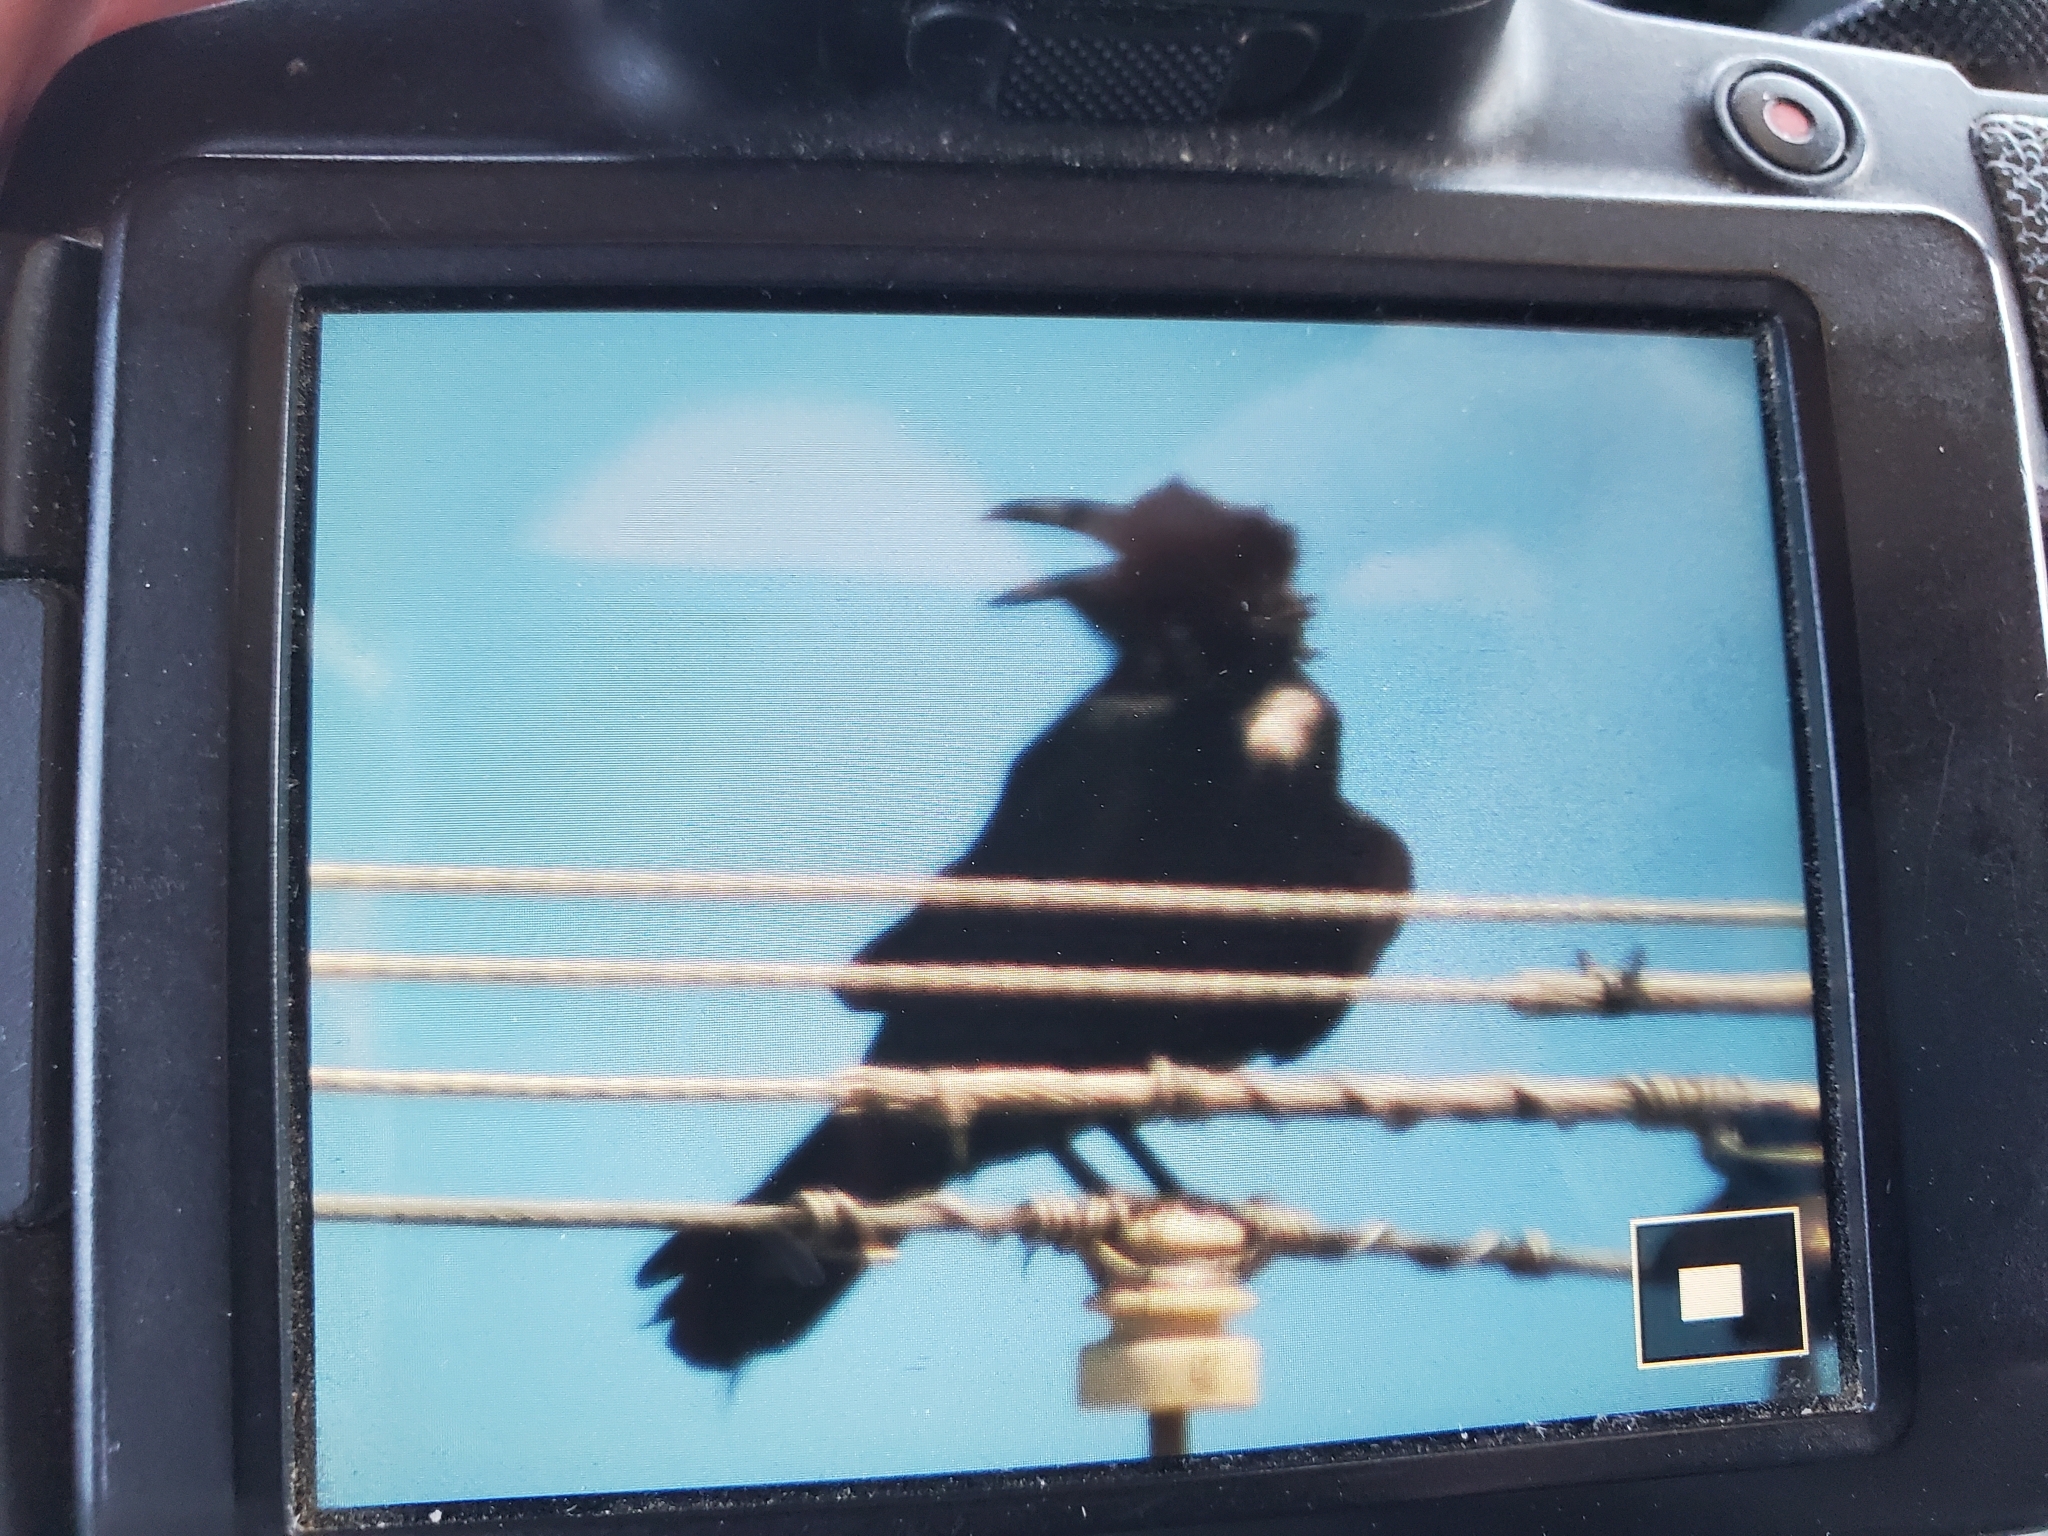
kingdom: Animalia
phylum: Chordata
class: Aves
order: Passeriformes
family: Corvidae
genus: Corvus
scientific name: Corvus corax
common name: Common raven
